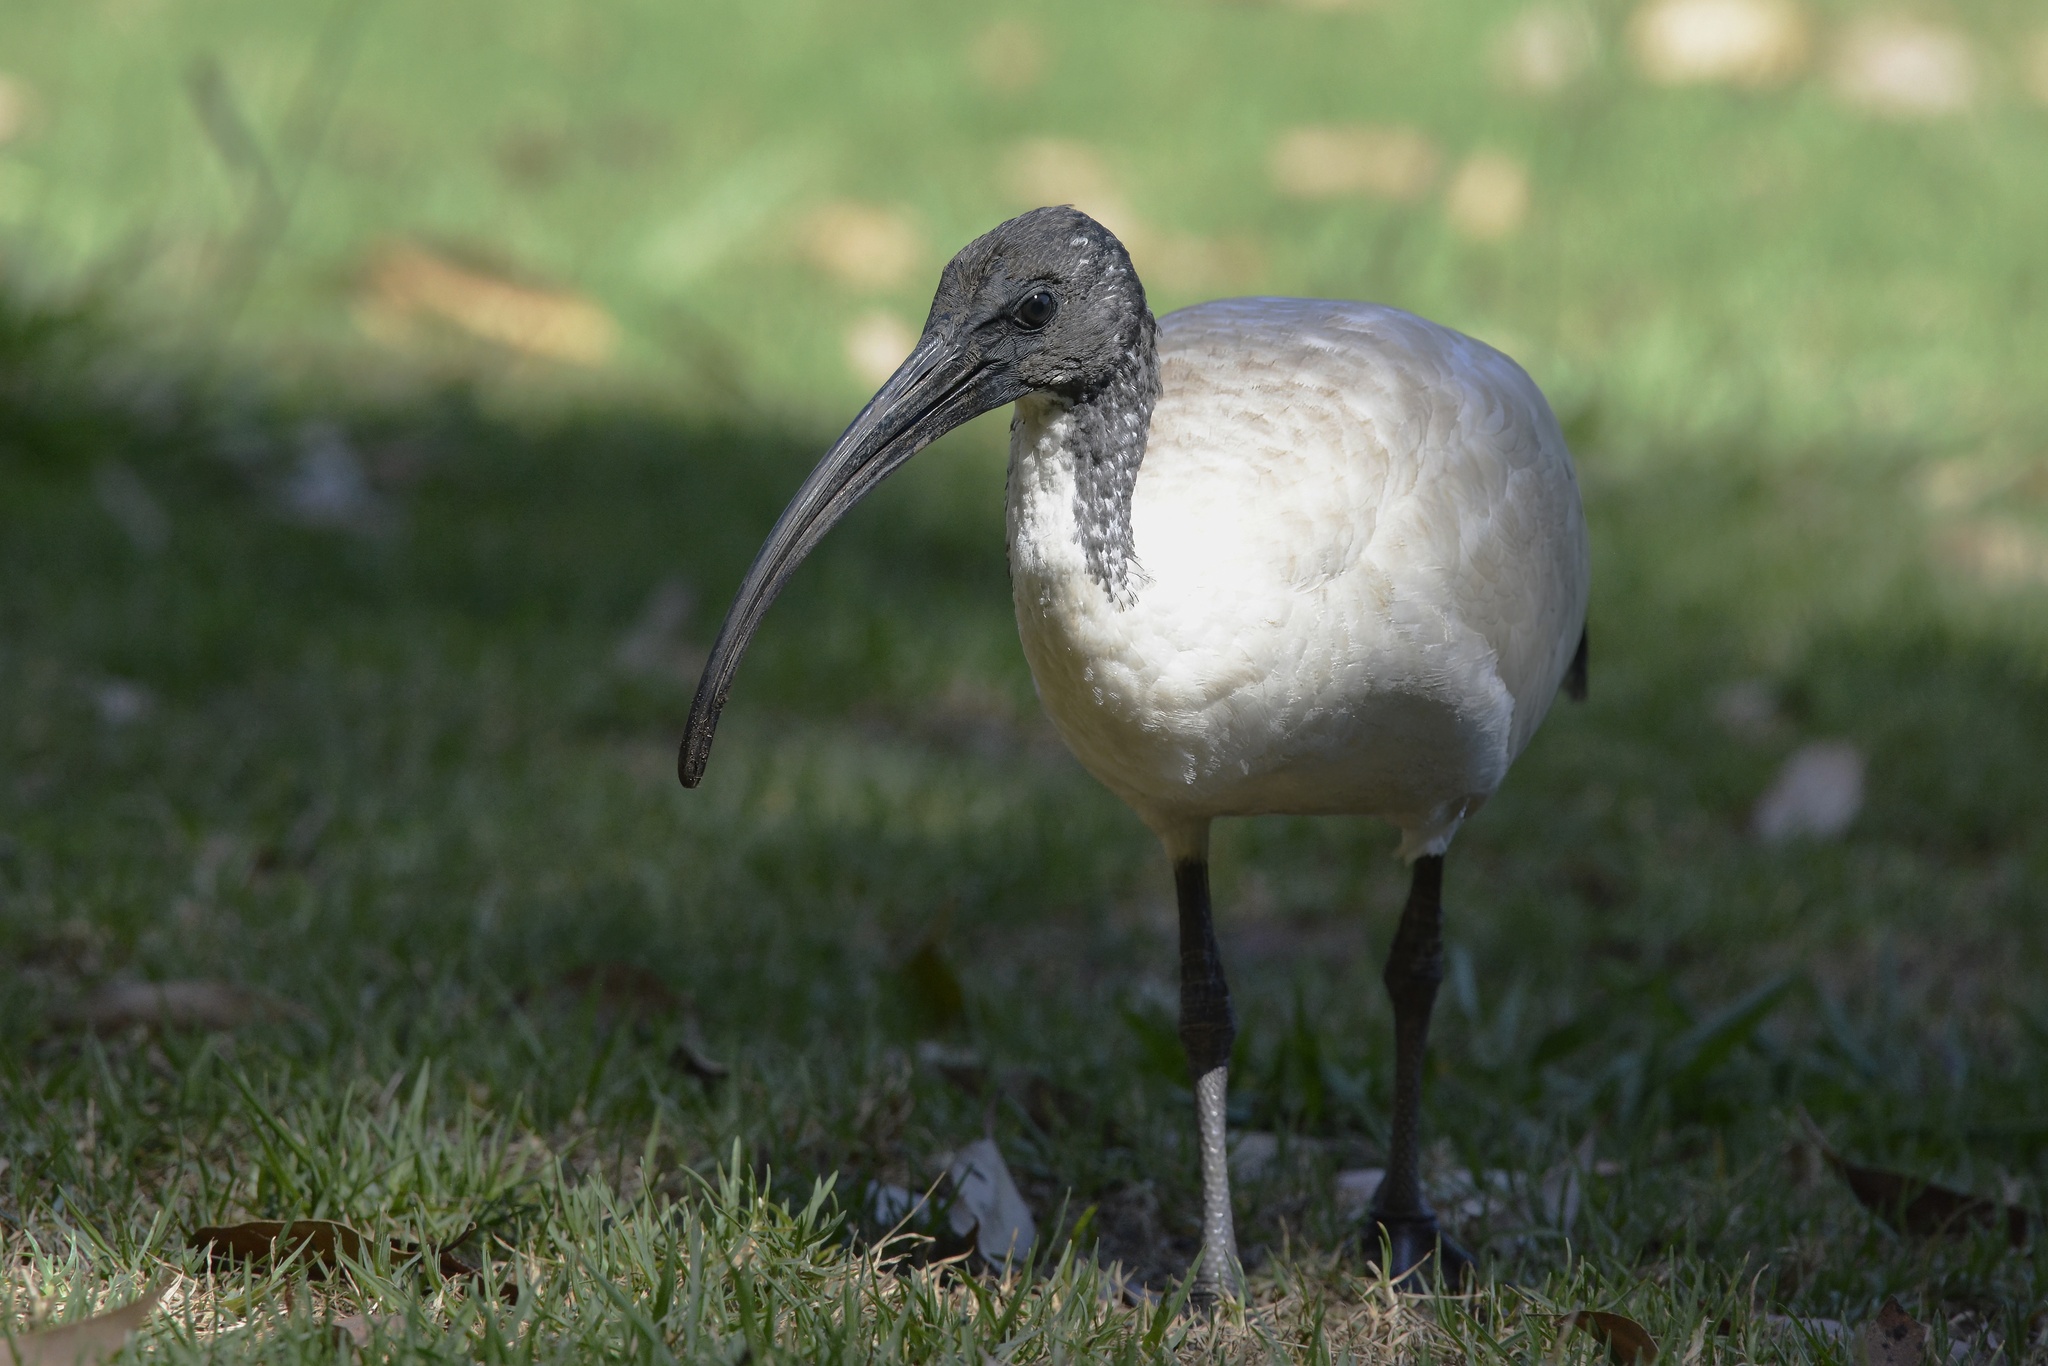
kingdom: Animalia
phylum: Chordata
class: Aves
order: Pelecaniformes
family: Threskiornithidae
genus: Threskiornis
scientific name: Threskiornis molucca
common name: Australian white ibis
